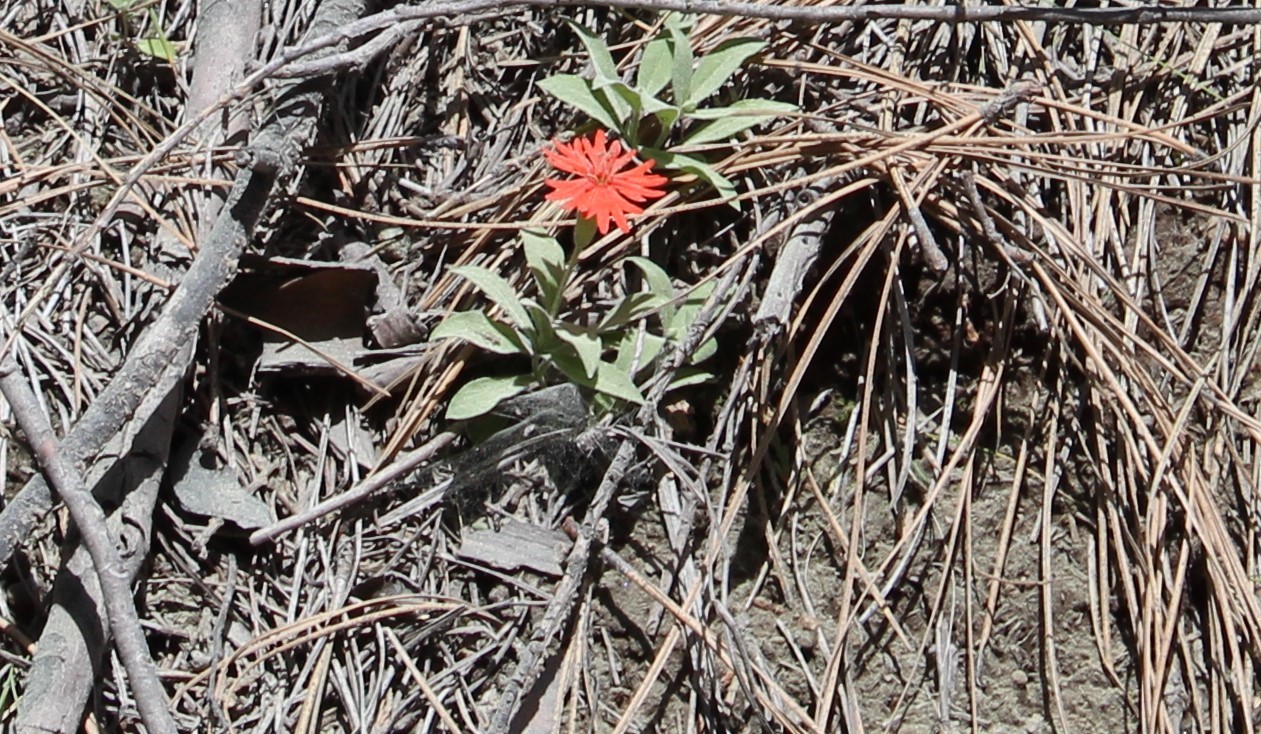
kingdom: Plantae
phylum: Tracheophyta
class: Magnoliopsida
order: Caryophyllales
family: Caryophyllaceae
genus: Silene
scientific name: Silene laciniata
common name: Indian-pink
